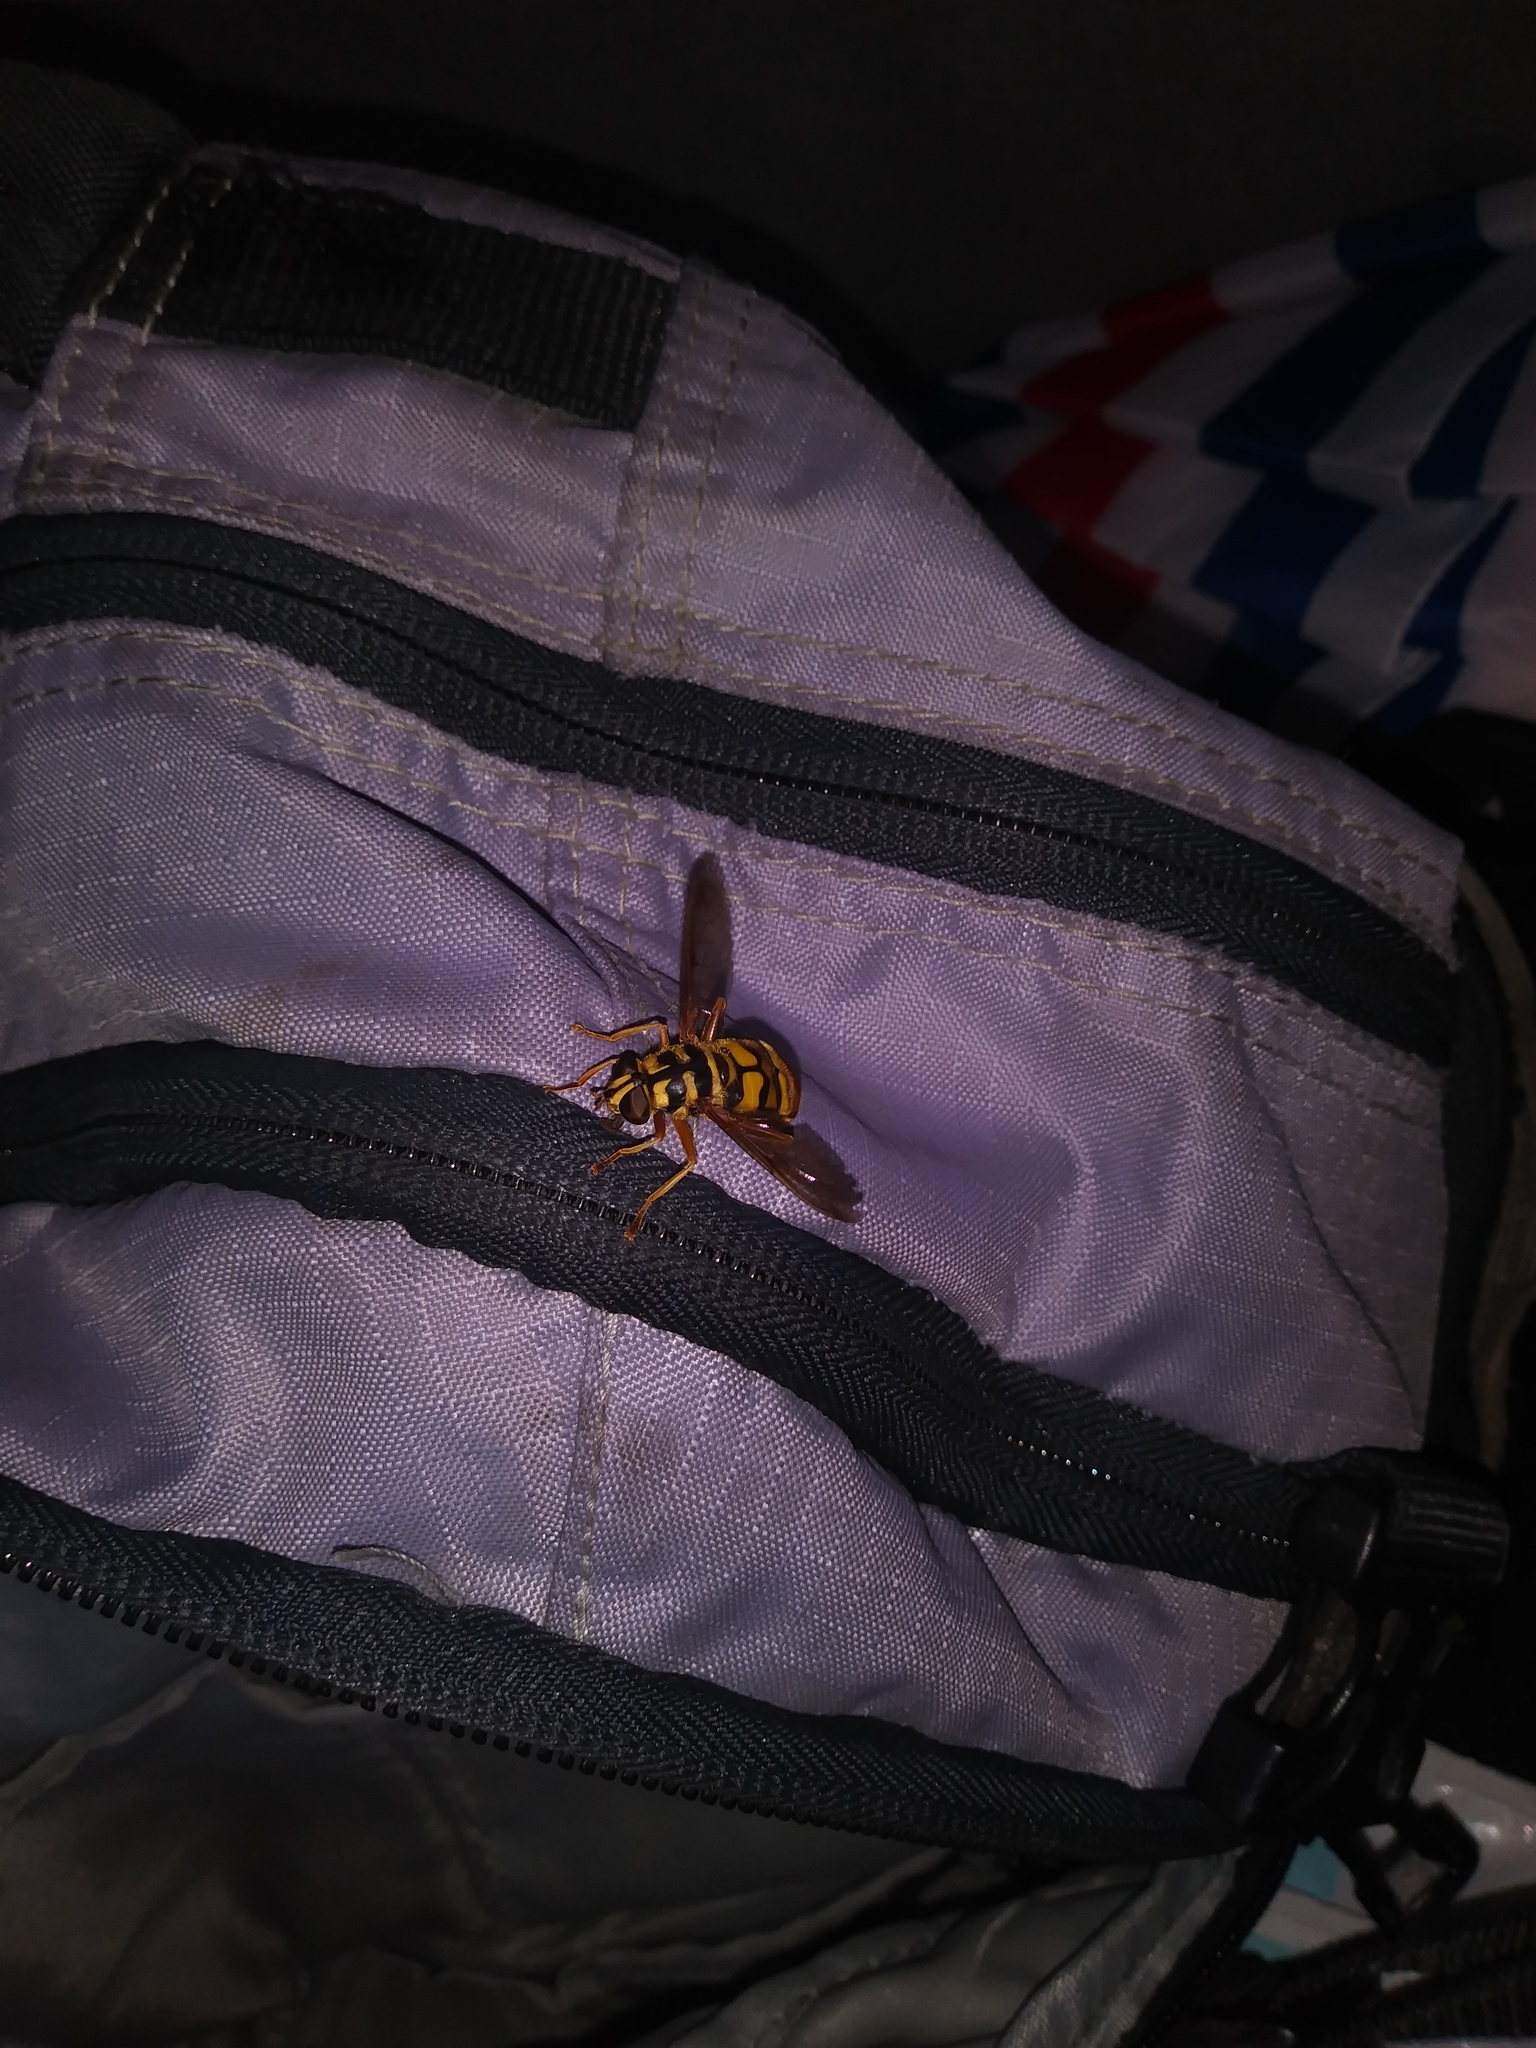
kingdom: Animalia
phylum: Arthropoda
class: Insecta
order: Diptera
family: Syrphidae
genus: Milesia
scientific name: Milesia virginiensis
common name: Virginia giant
